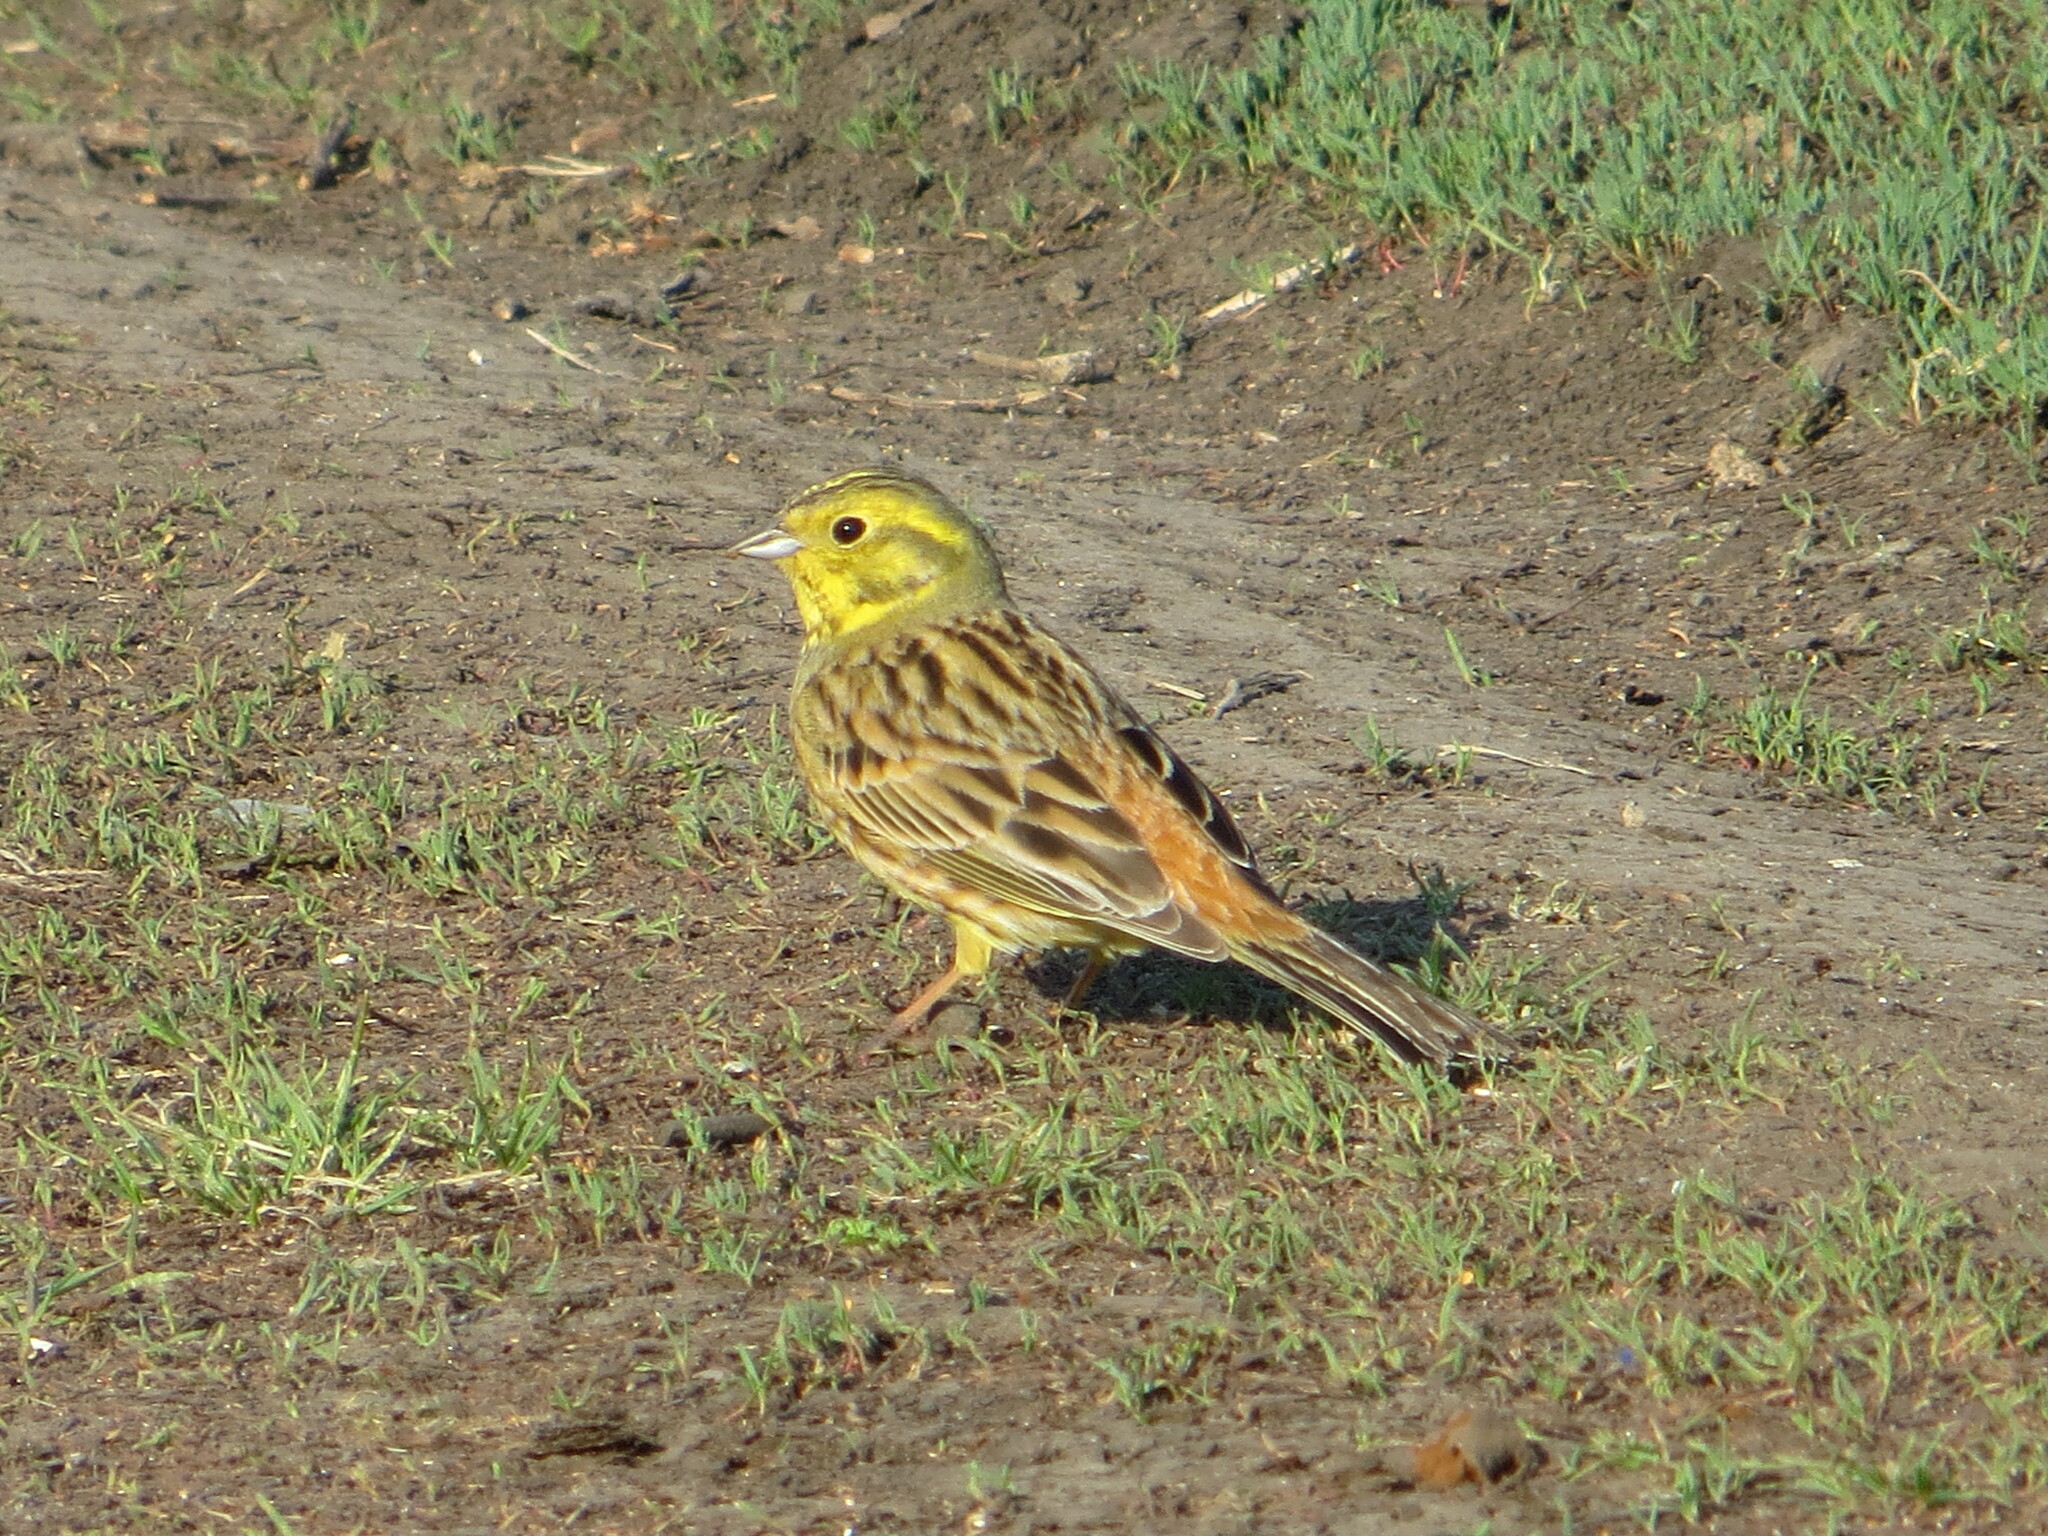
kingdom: Animalia
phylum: Chordata
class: Aves
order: Passeriformes
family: Emberizidae
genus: Emberiza
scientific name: Emberiza citrinella
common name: Yellowhammer
